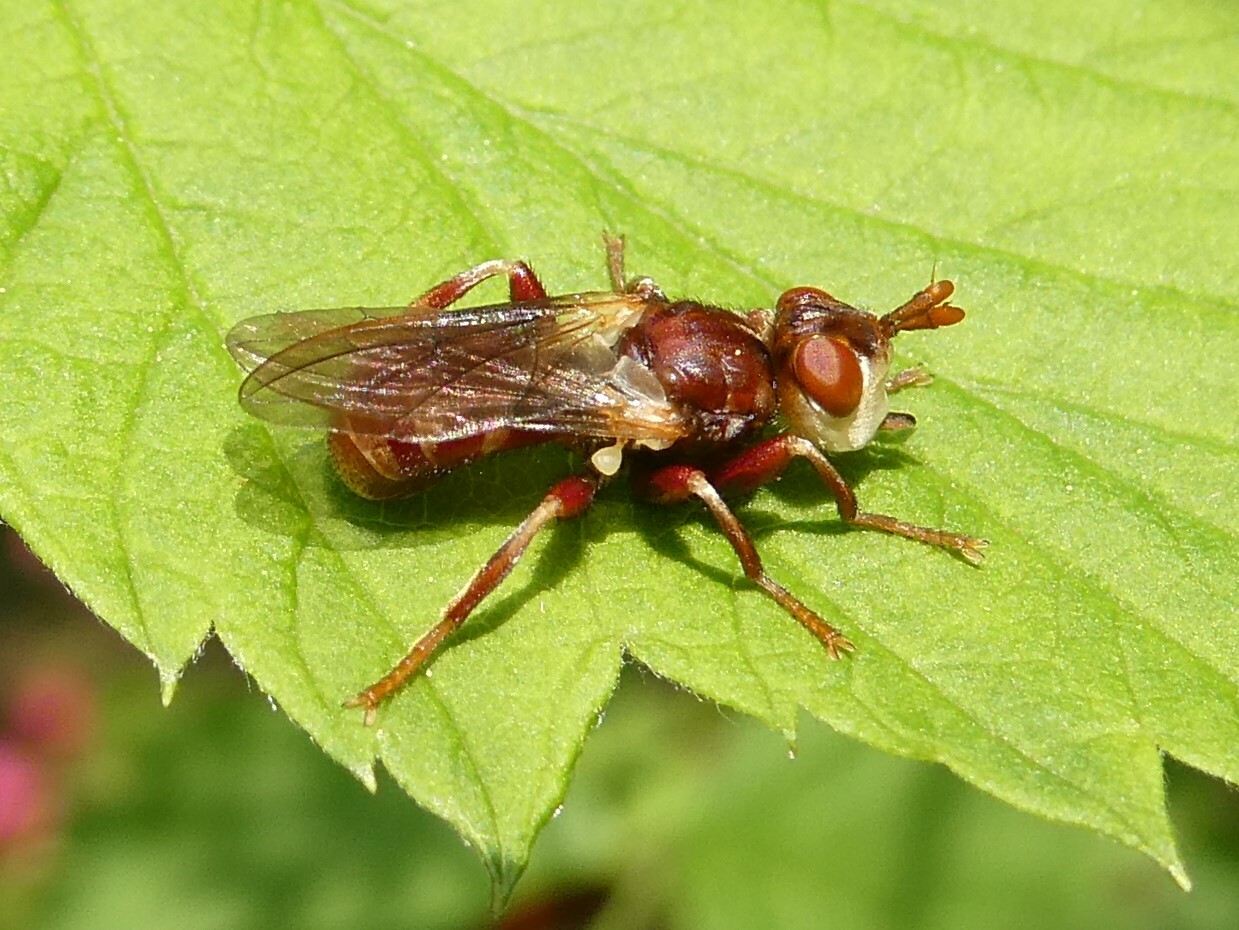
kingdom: Animalia
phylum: Arthropoda
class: Insecta
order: Diptera
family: Conopidae
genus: Myopa
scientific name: Myopa clausa
